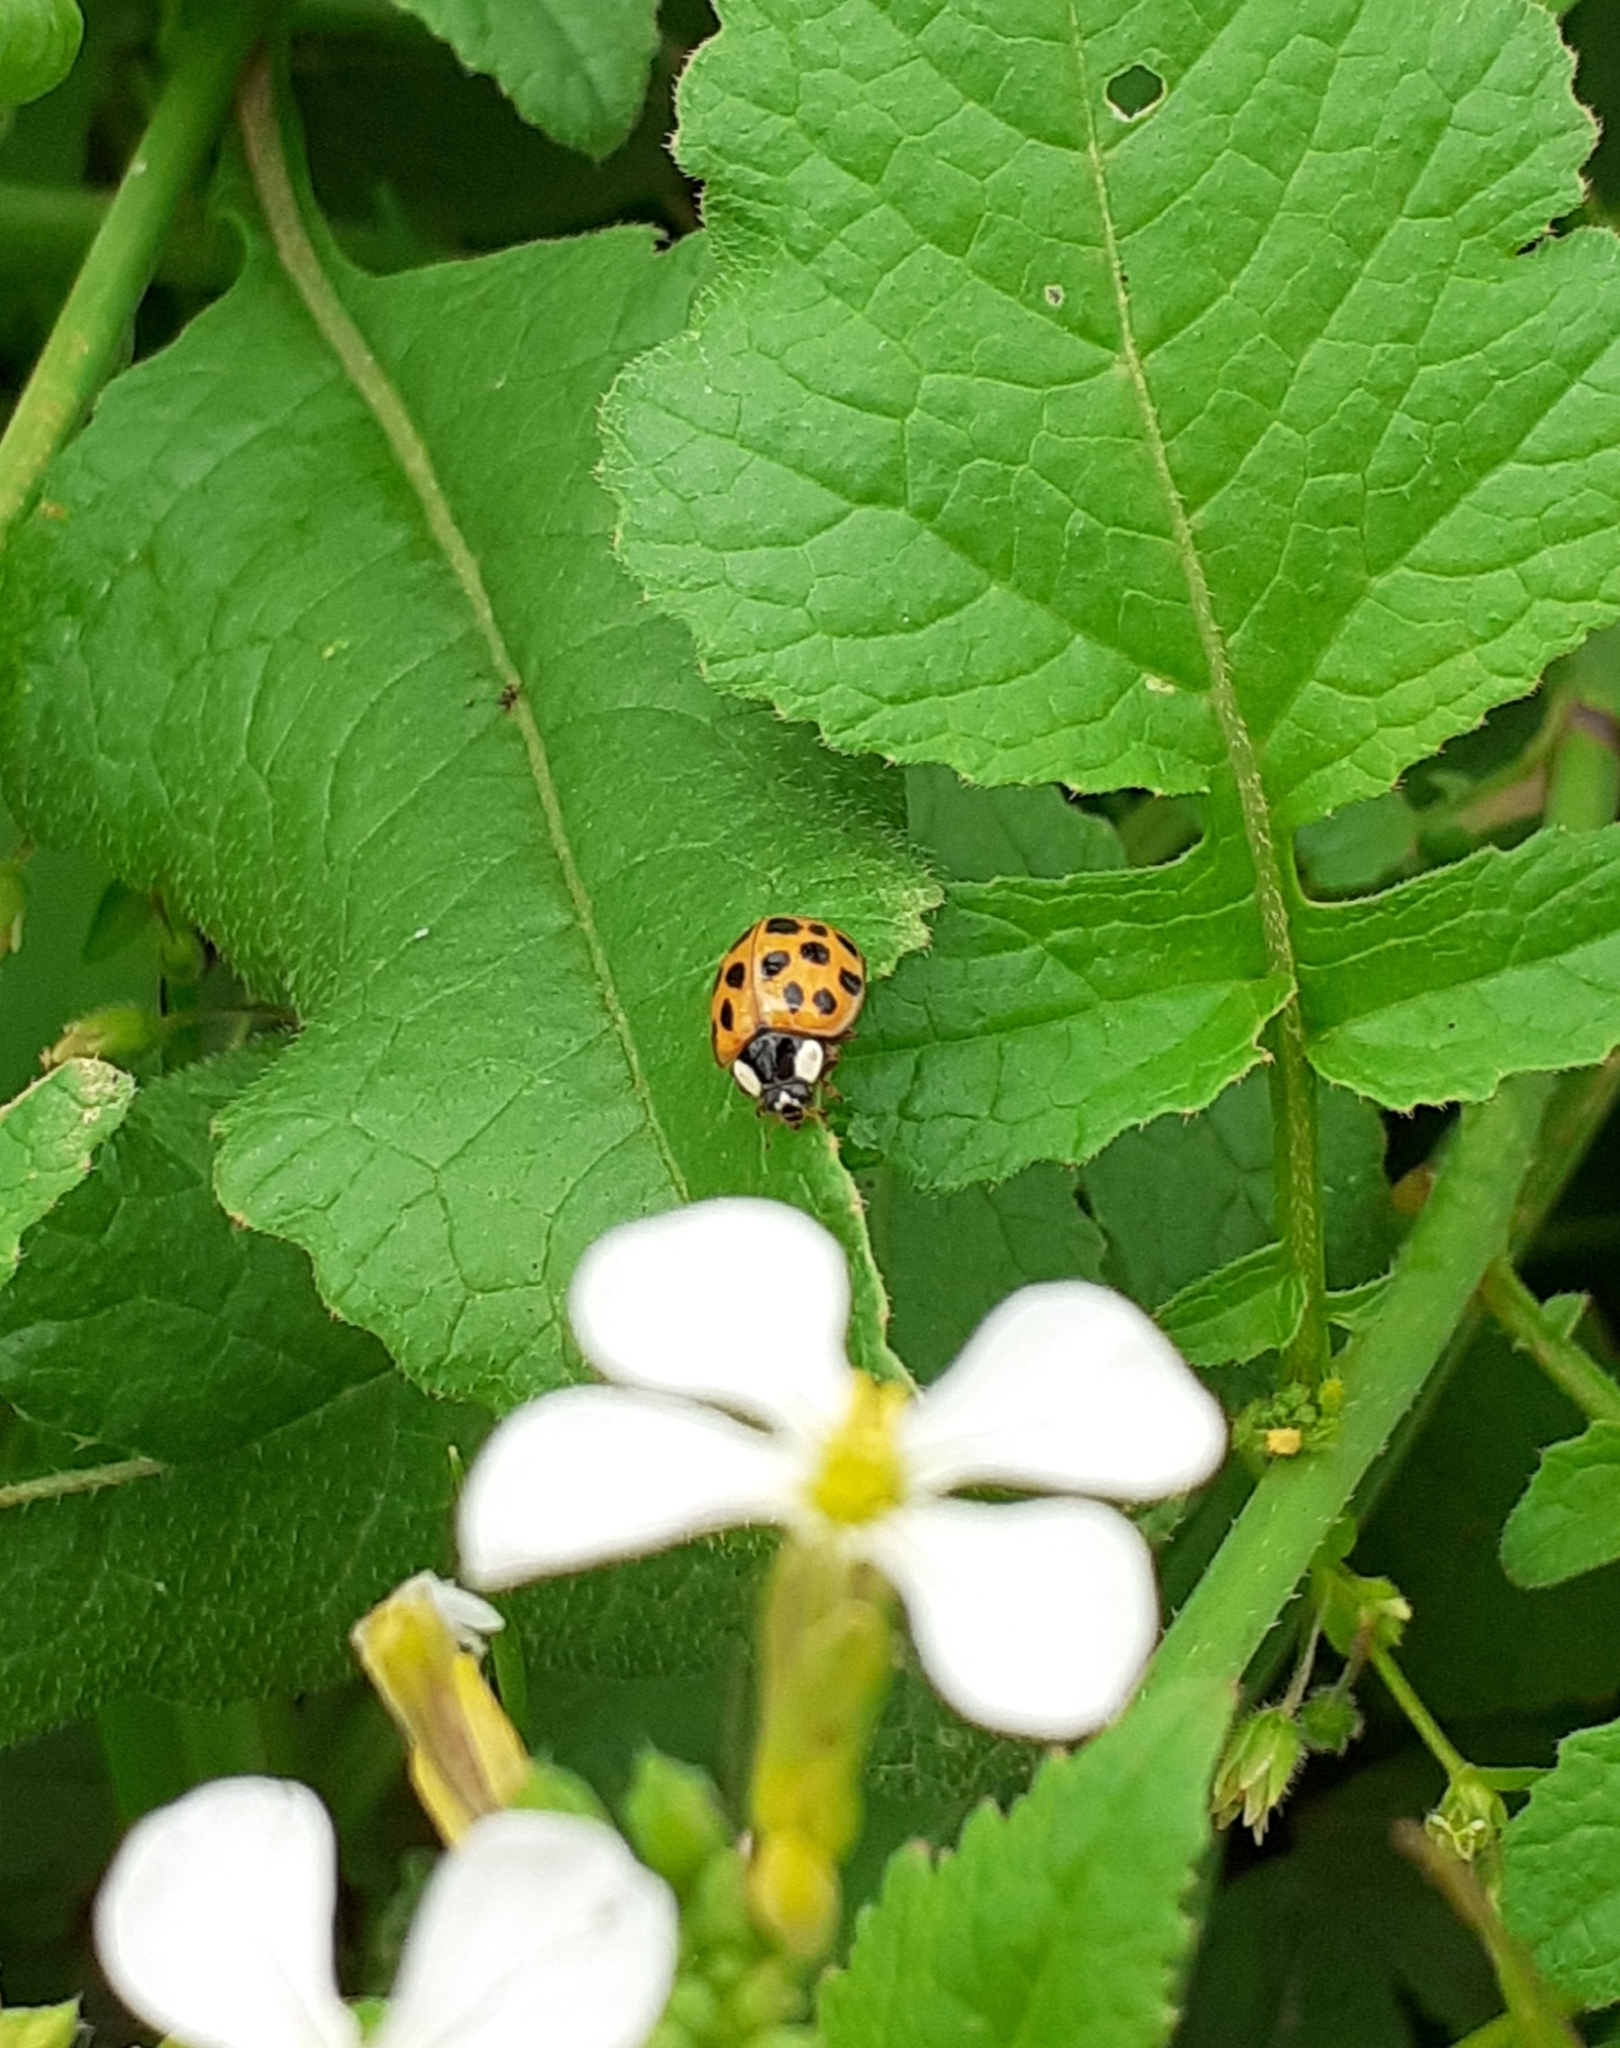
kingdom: Animalia
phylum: Arthropoda
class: Insecta
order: Coleoptera
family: Coccinellidae
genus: Harmonia
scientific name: Harmonia axyridis
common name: Harlequin ladybird
